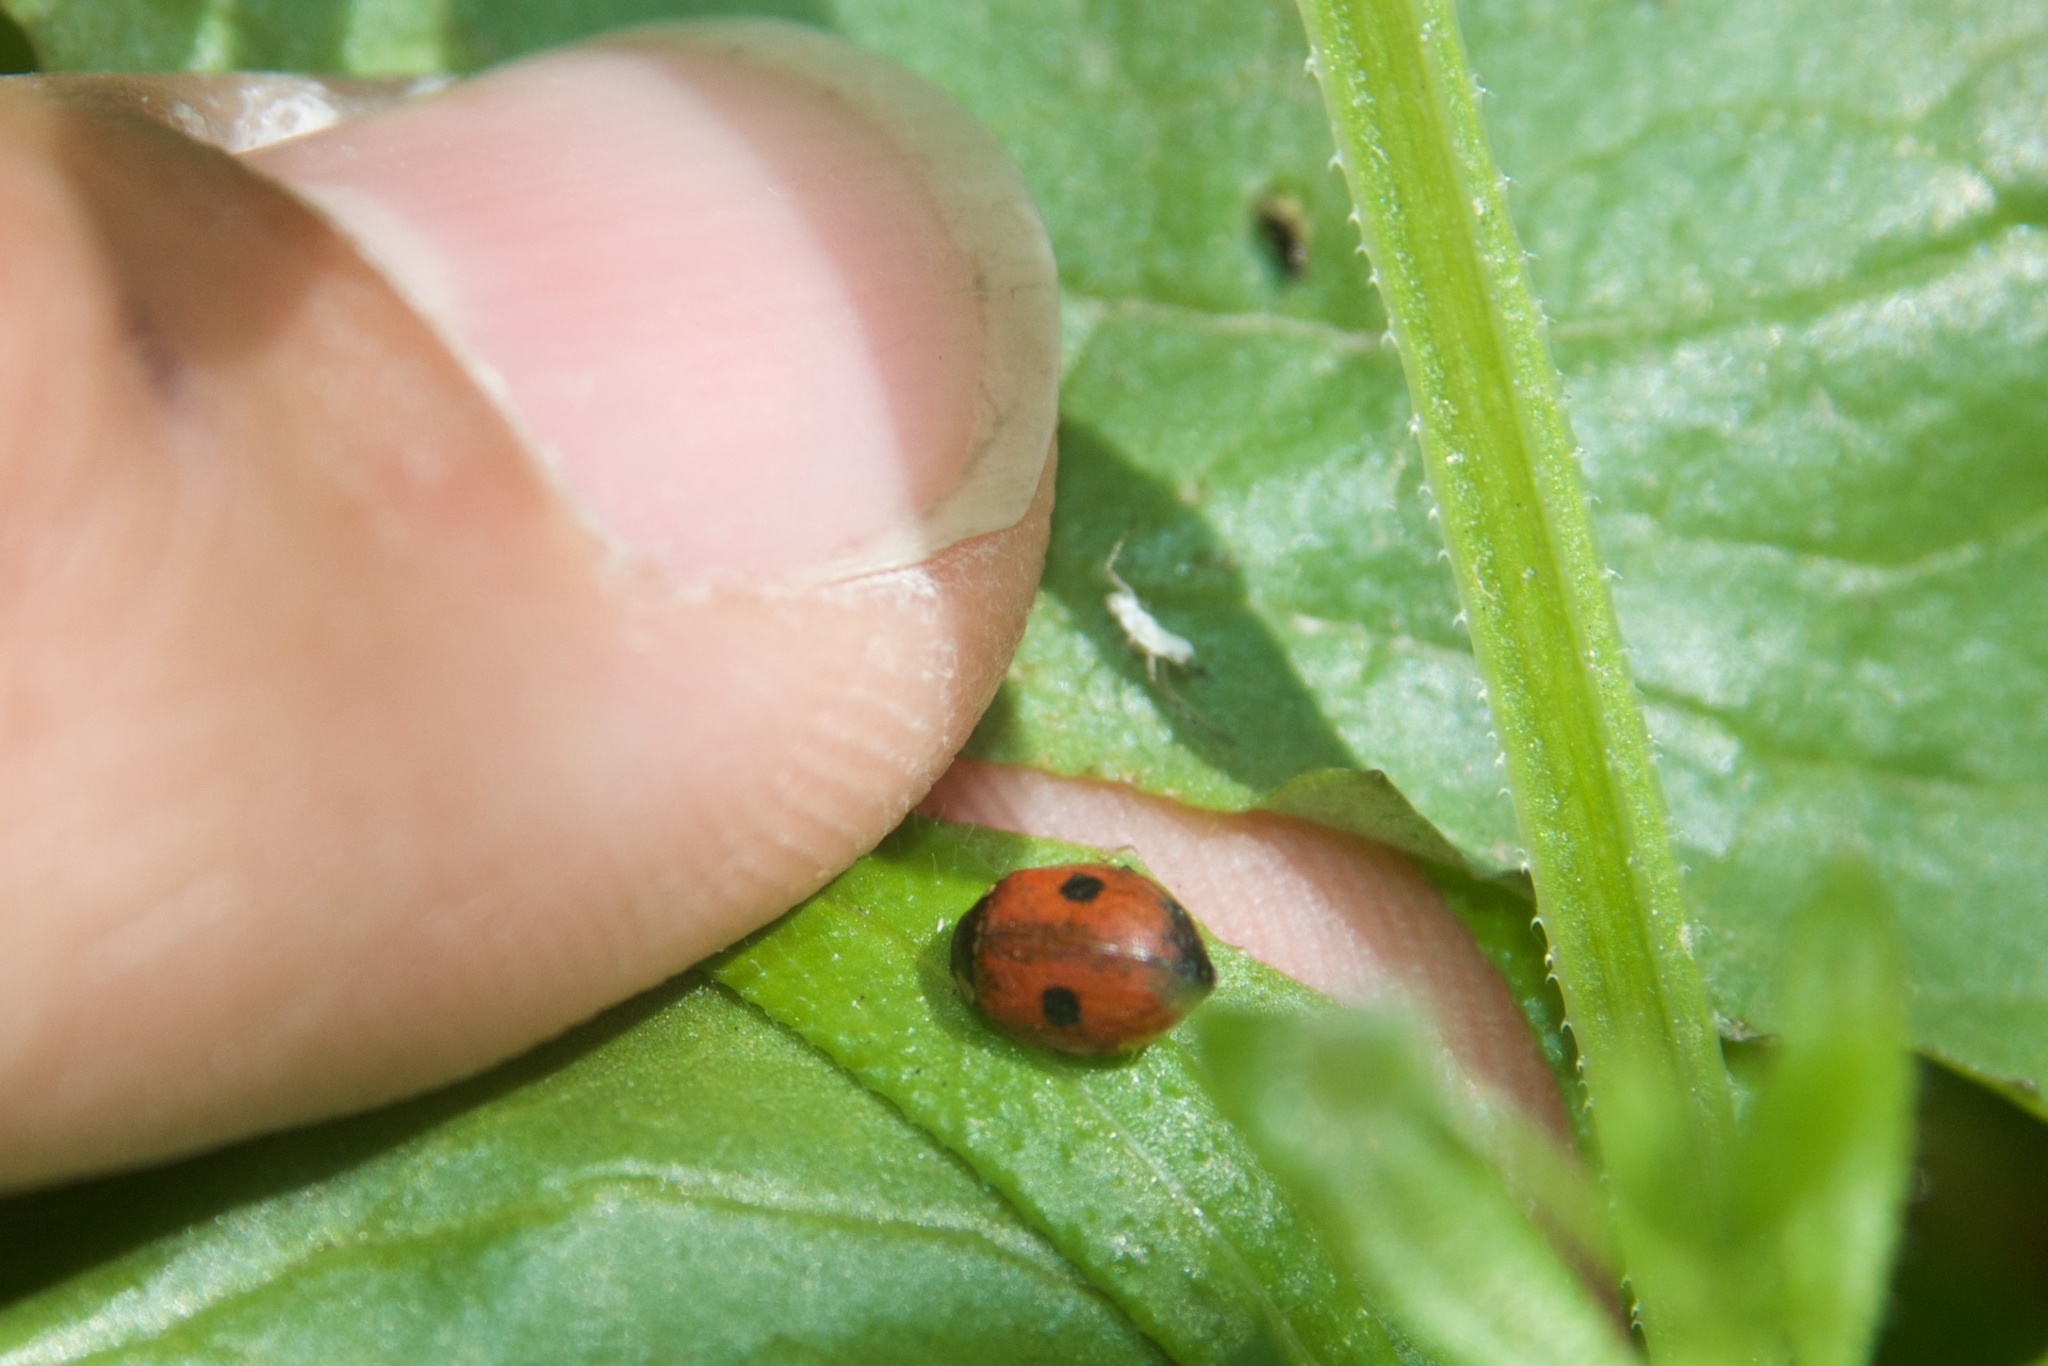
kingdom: Animalia
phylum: Arthropoda
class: Insecta
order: Coleoptera
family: Coccinellidae
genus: Adalia
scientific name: Adalia bipunctata
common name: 2-spot ladybird
